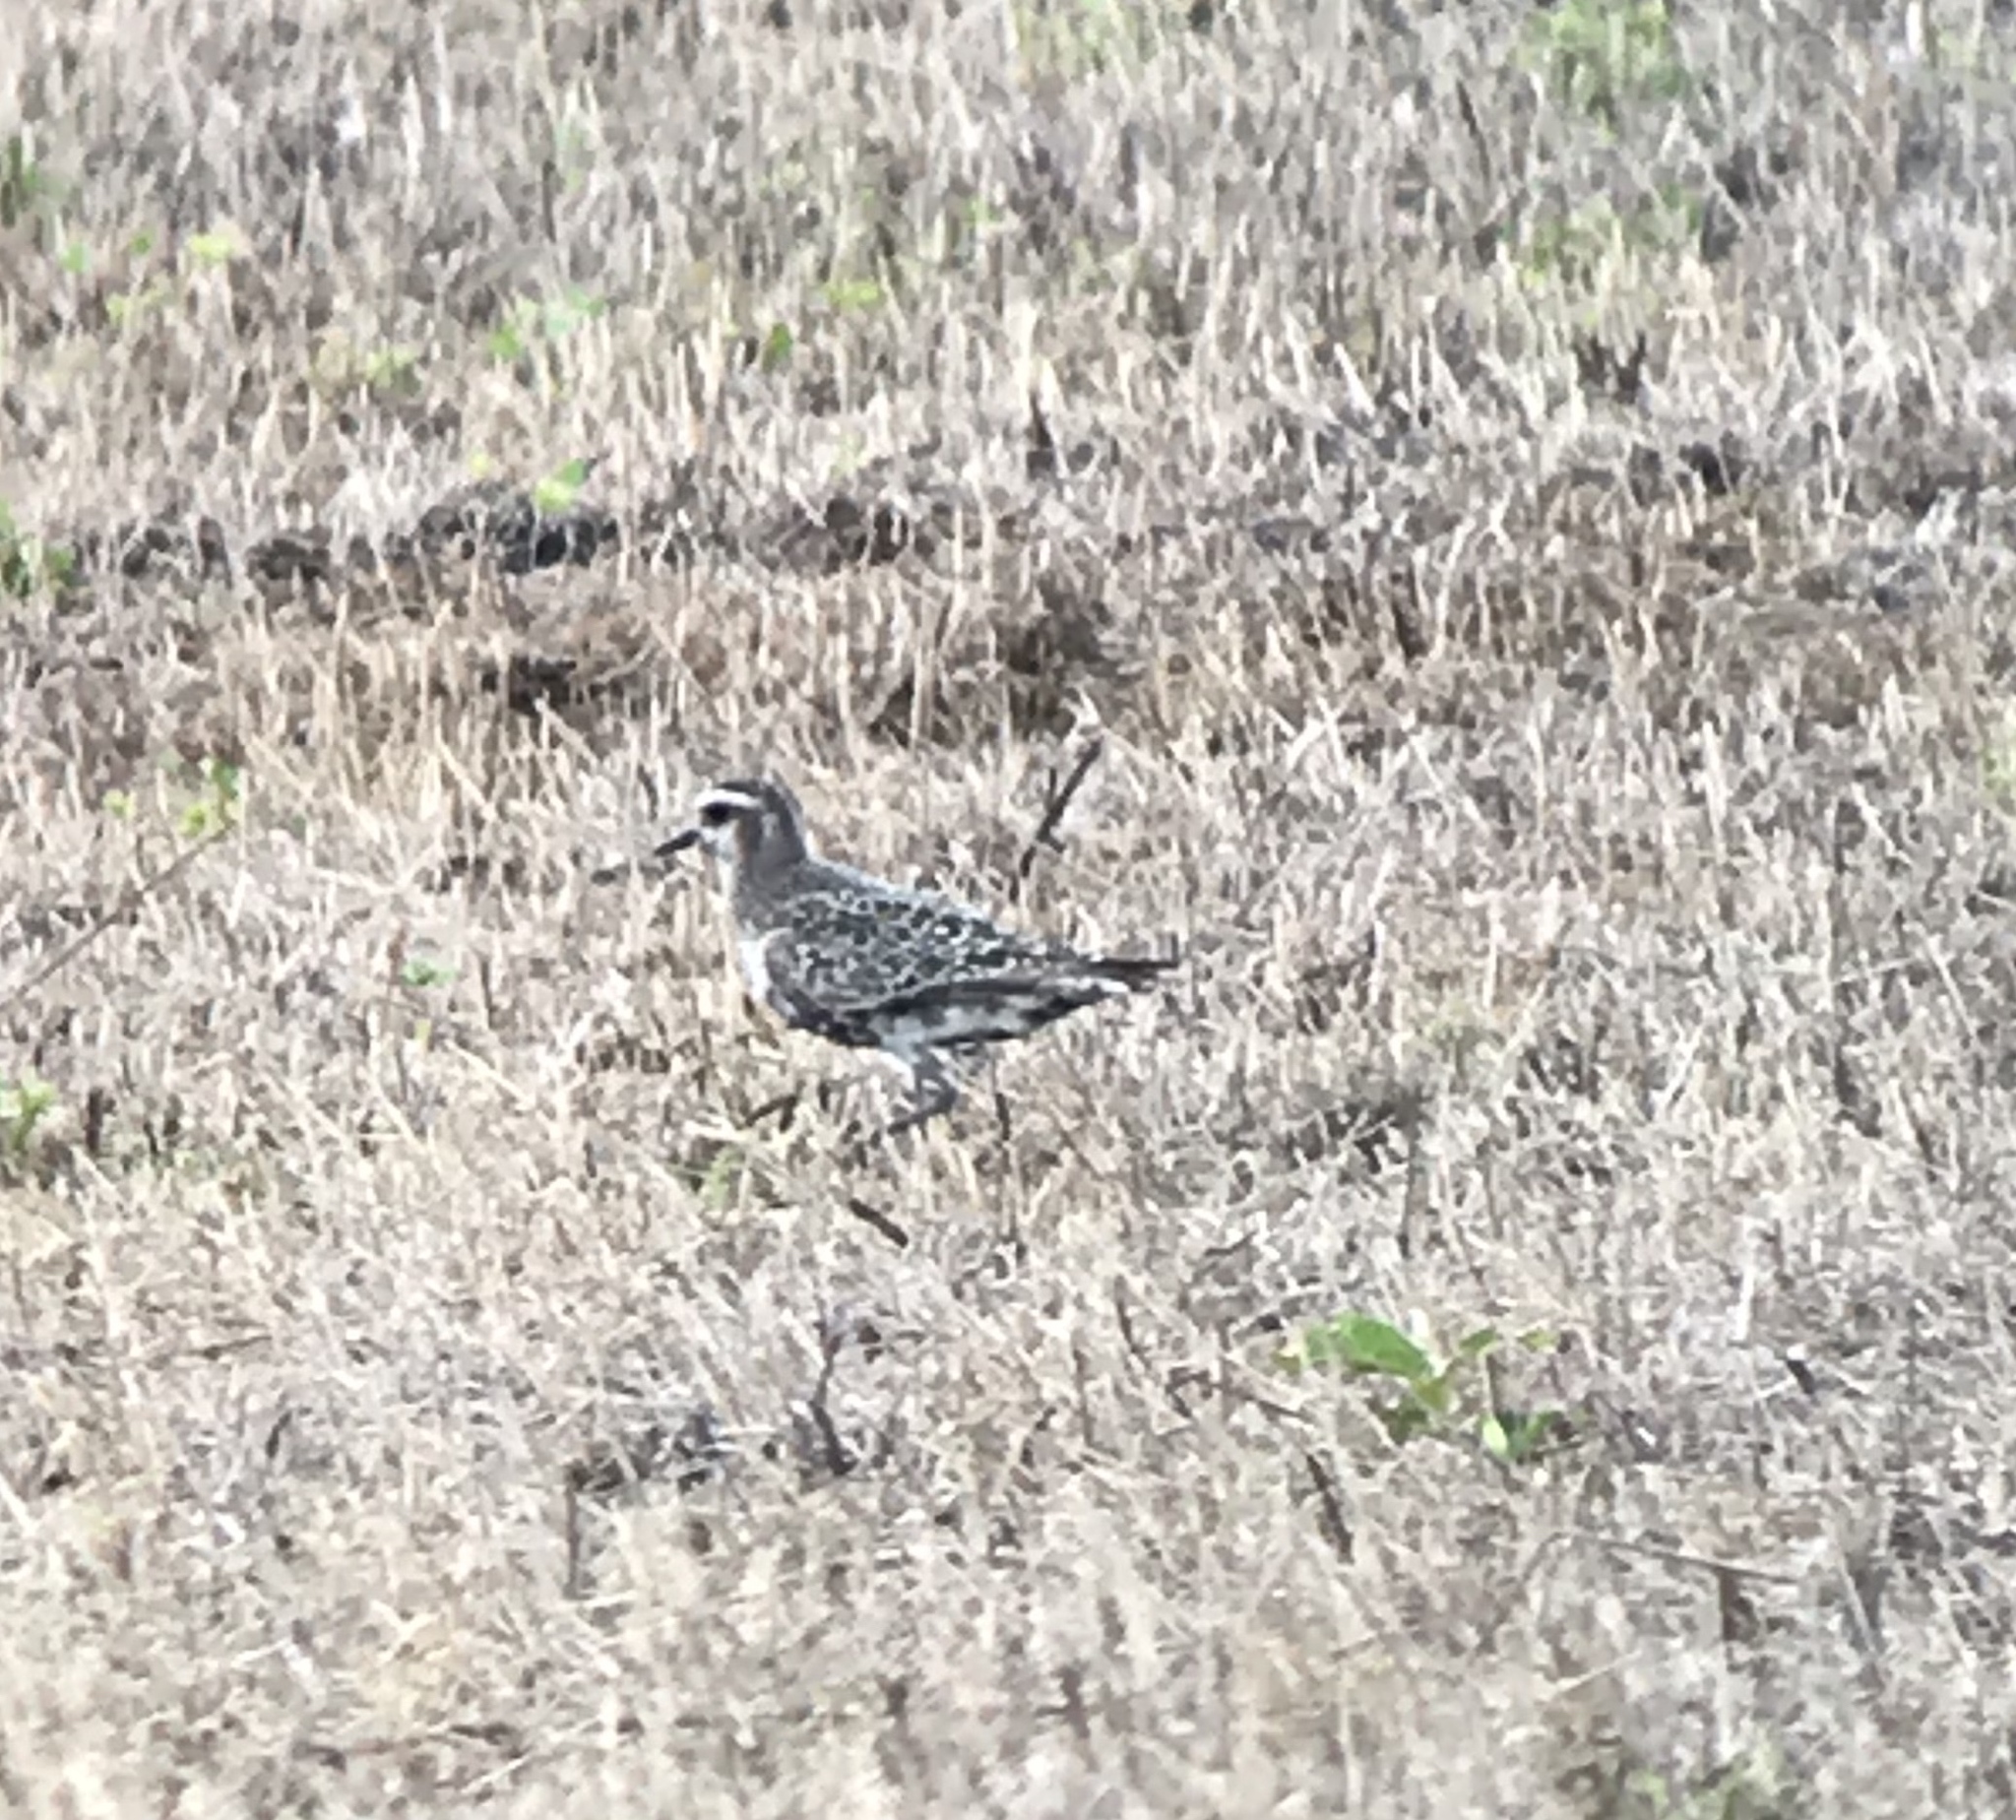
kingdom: Animalia
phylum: Chordata
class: Aves
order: Charadriiformes
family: Charadriidae
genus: Pluvialis
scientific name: Pluvialis dominica
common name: American golden plover
